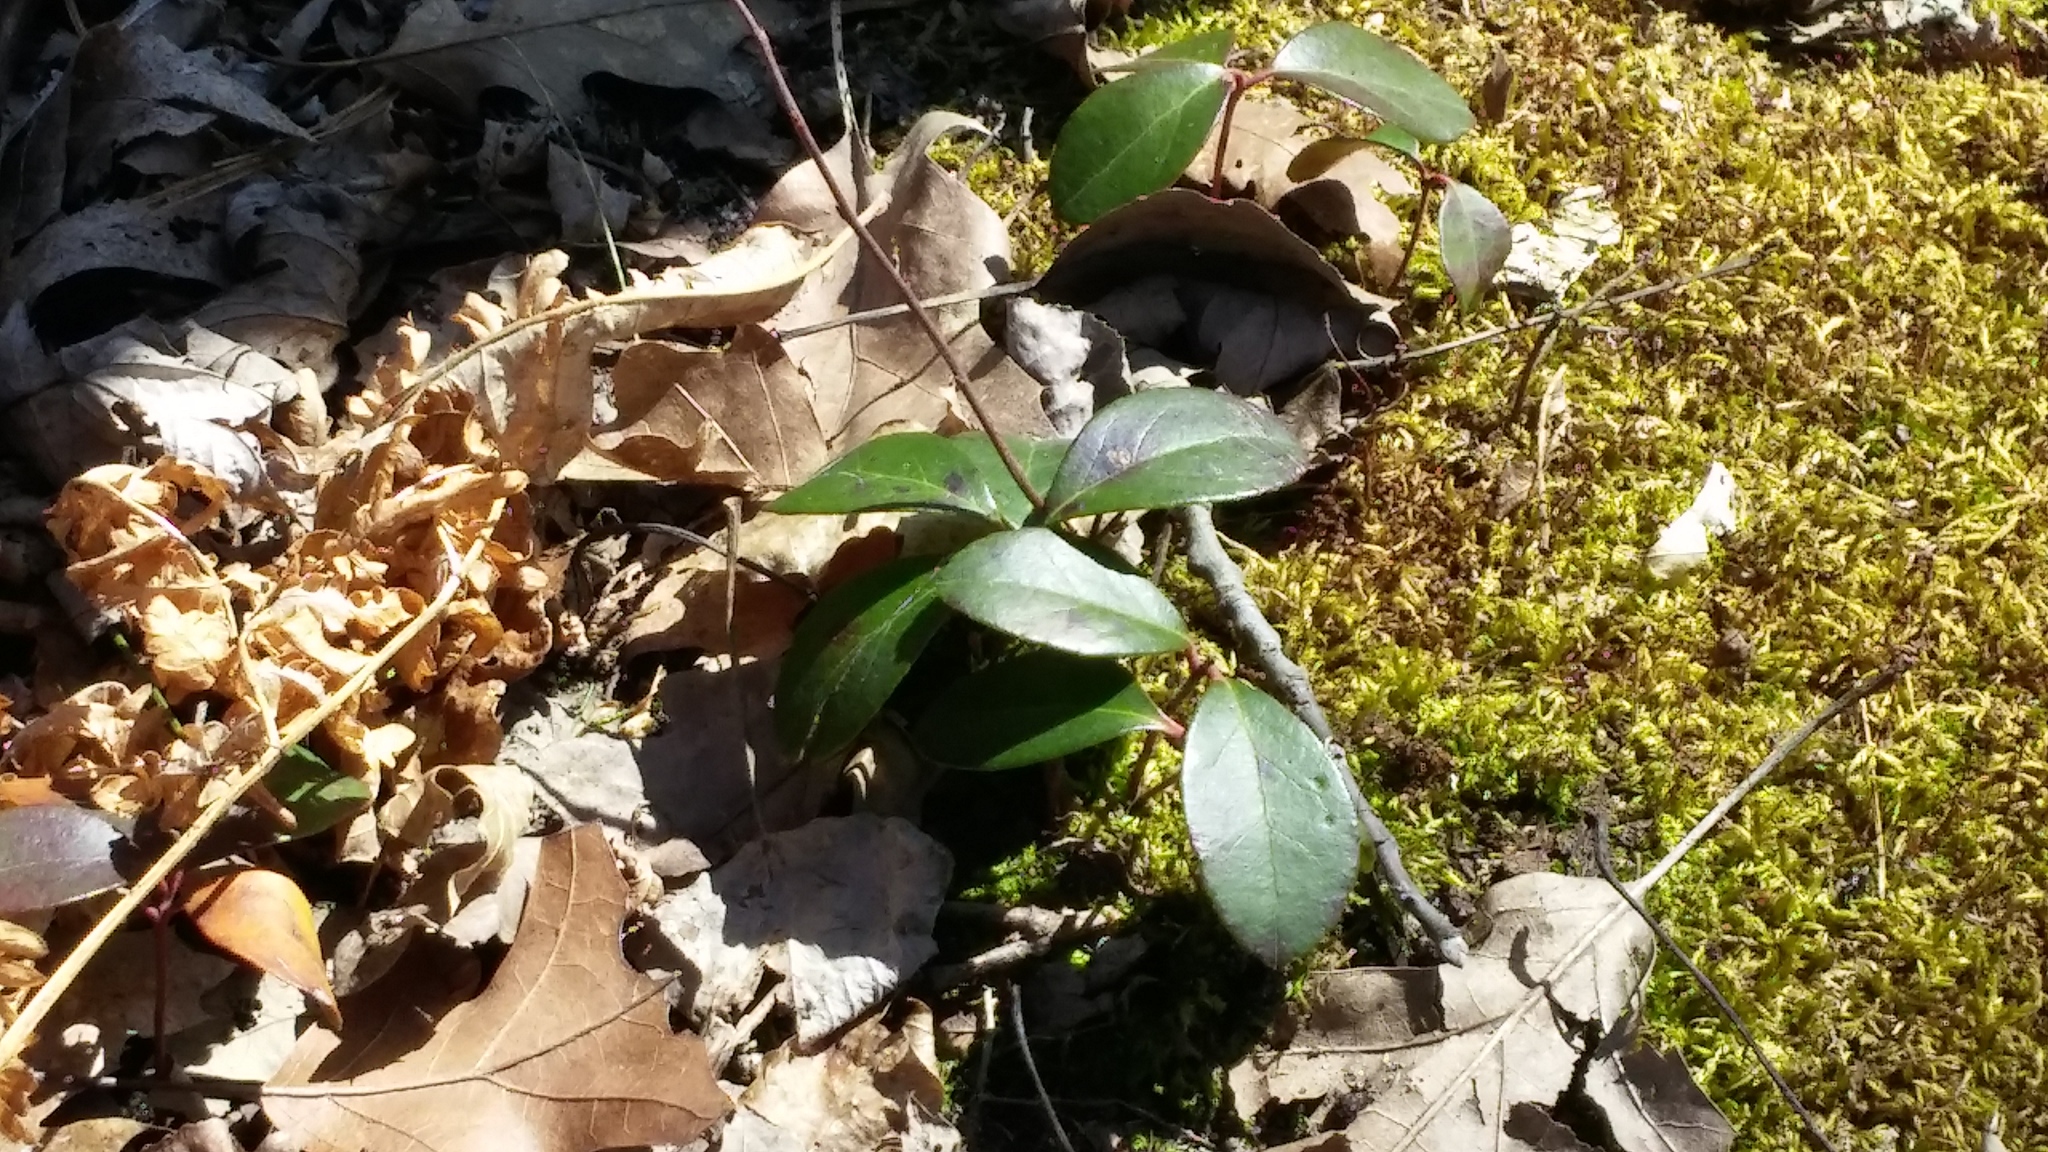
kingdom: Plantae
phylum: Tracheophyta
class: Magnoliopsida
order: Ericales
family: Ericaceae
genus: Gaultheria
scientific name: Gaultheria procumbens
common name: Checkerberry
